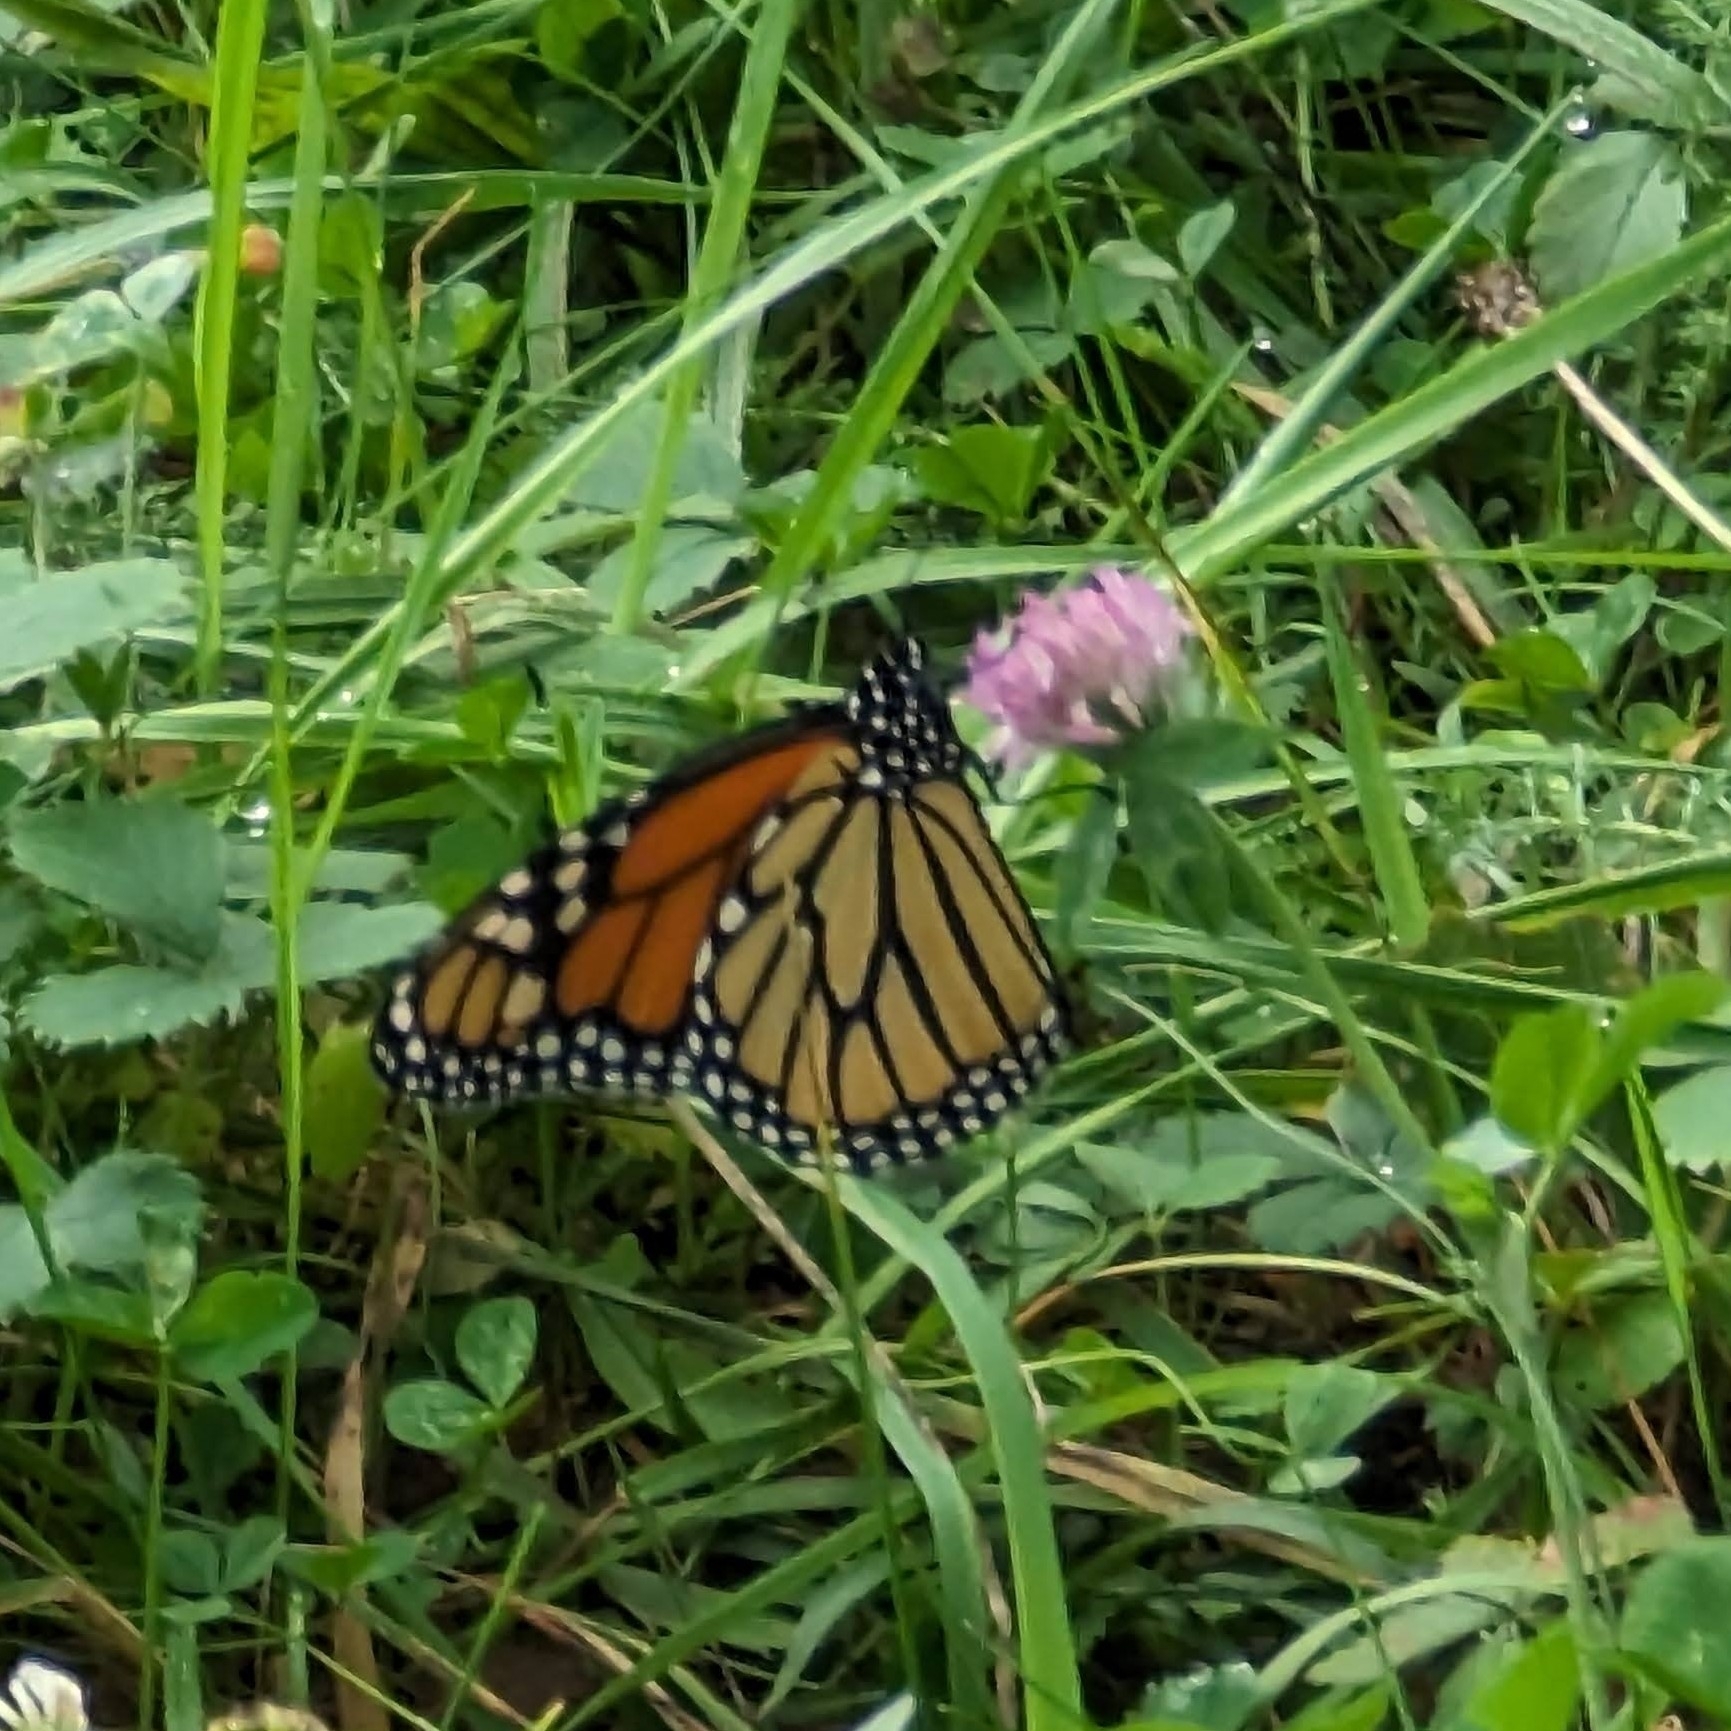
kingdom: Animalia
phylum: Arthropoda
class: Insecta
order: Lepidoptera
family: Nymphalidae
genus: Danaus
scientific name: Danaus plexippus
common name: Monarch
